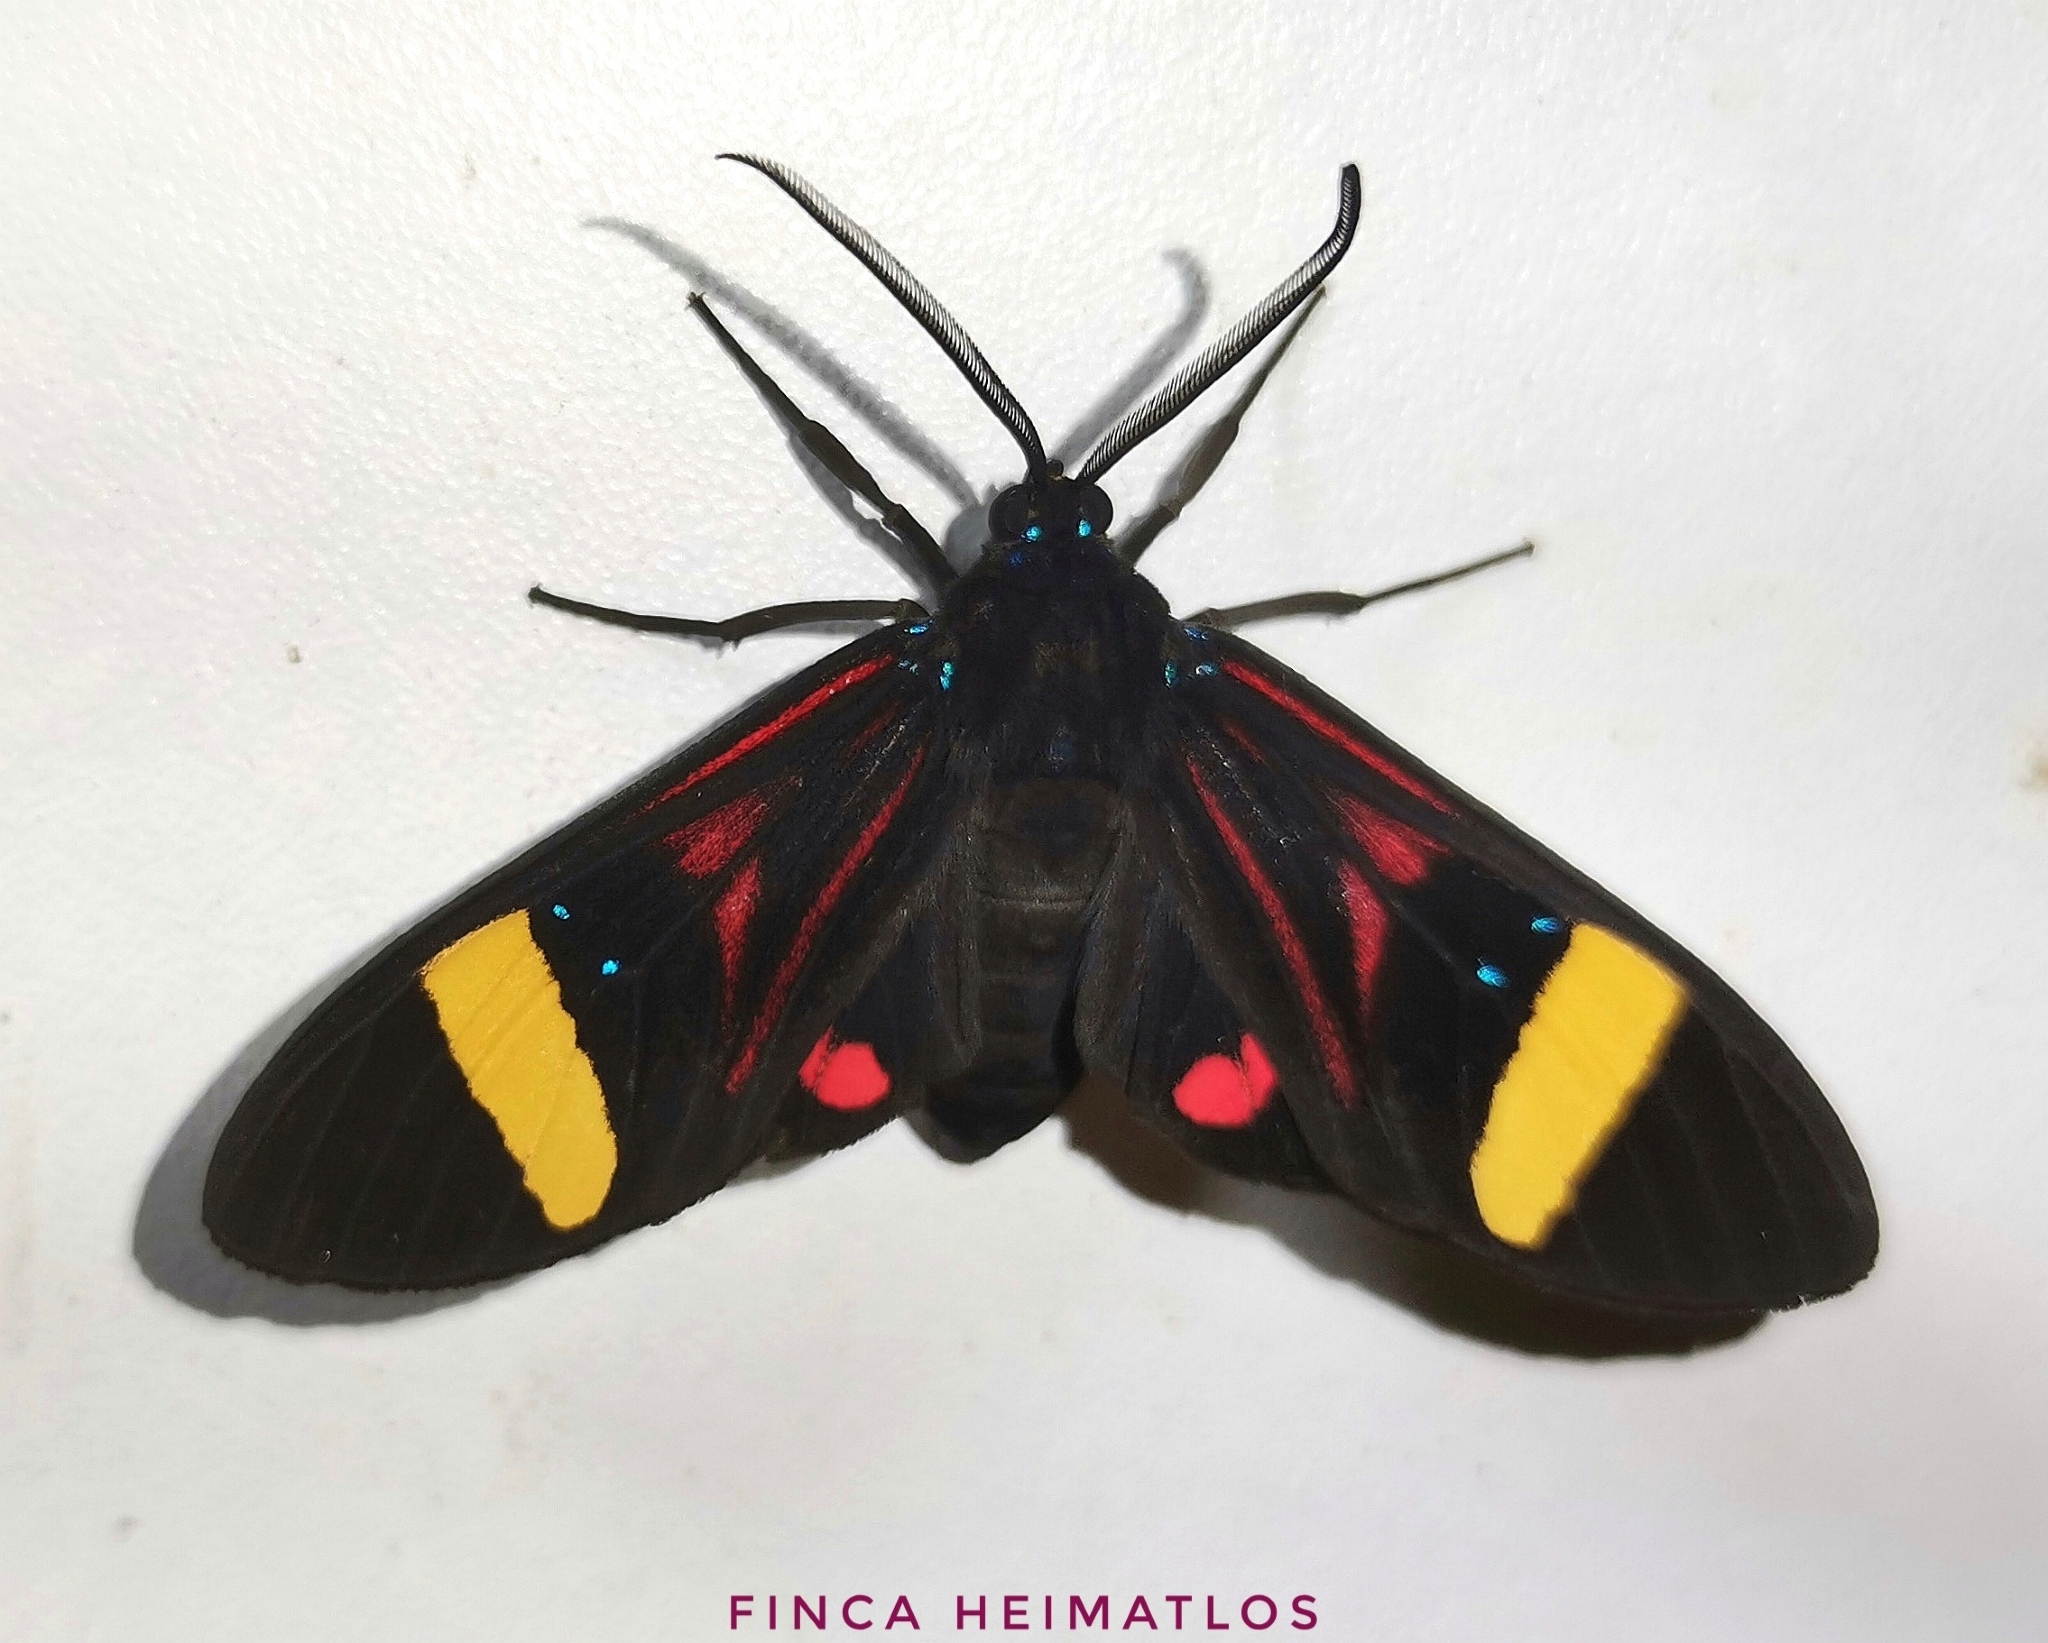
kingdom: Animalia
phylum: Arthropoda
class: Insecta
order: Lepidoptera
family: Erebidae
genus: Histioea
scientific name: Histioea proserpina
